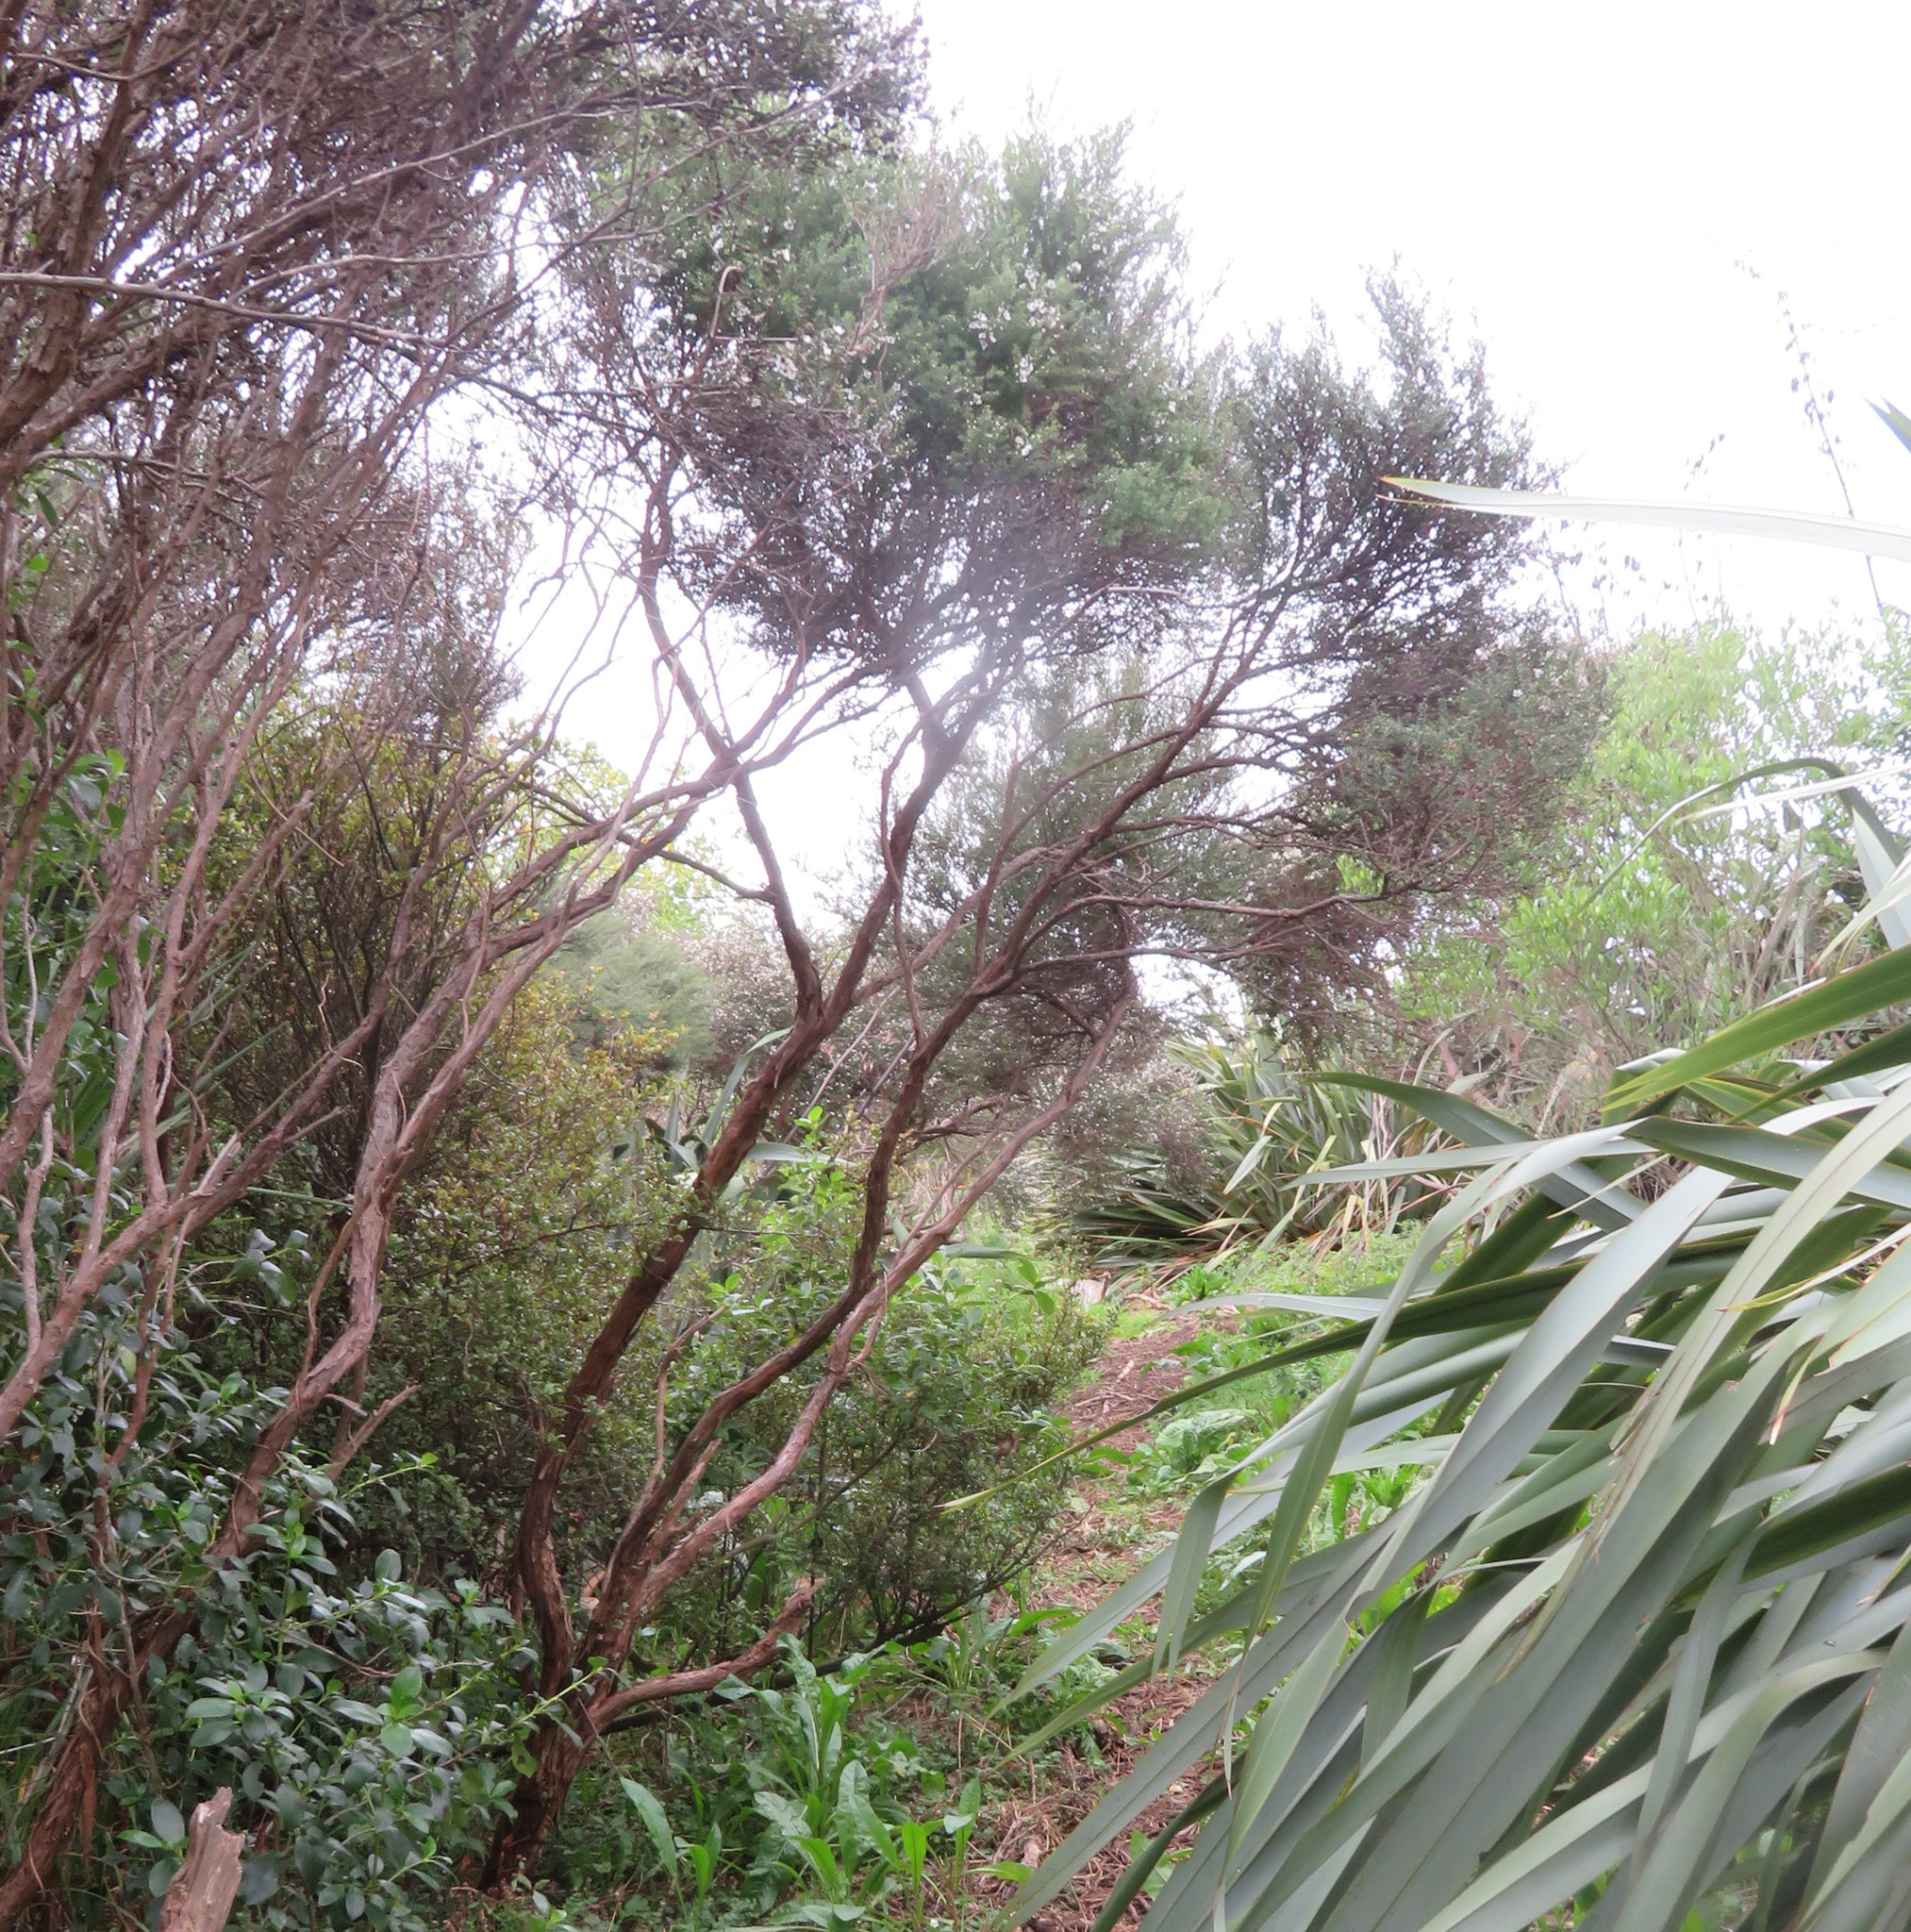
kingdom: Plantae
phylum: Tracheophyta
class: Magnoliopsida
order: Myrtales
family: Myrtaceae
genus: Leptospermum
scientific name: Leptospermum scoparium
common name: Broom tea-tree
